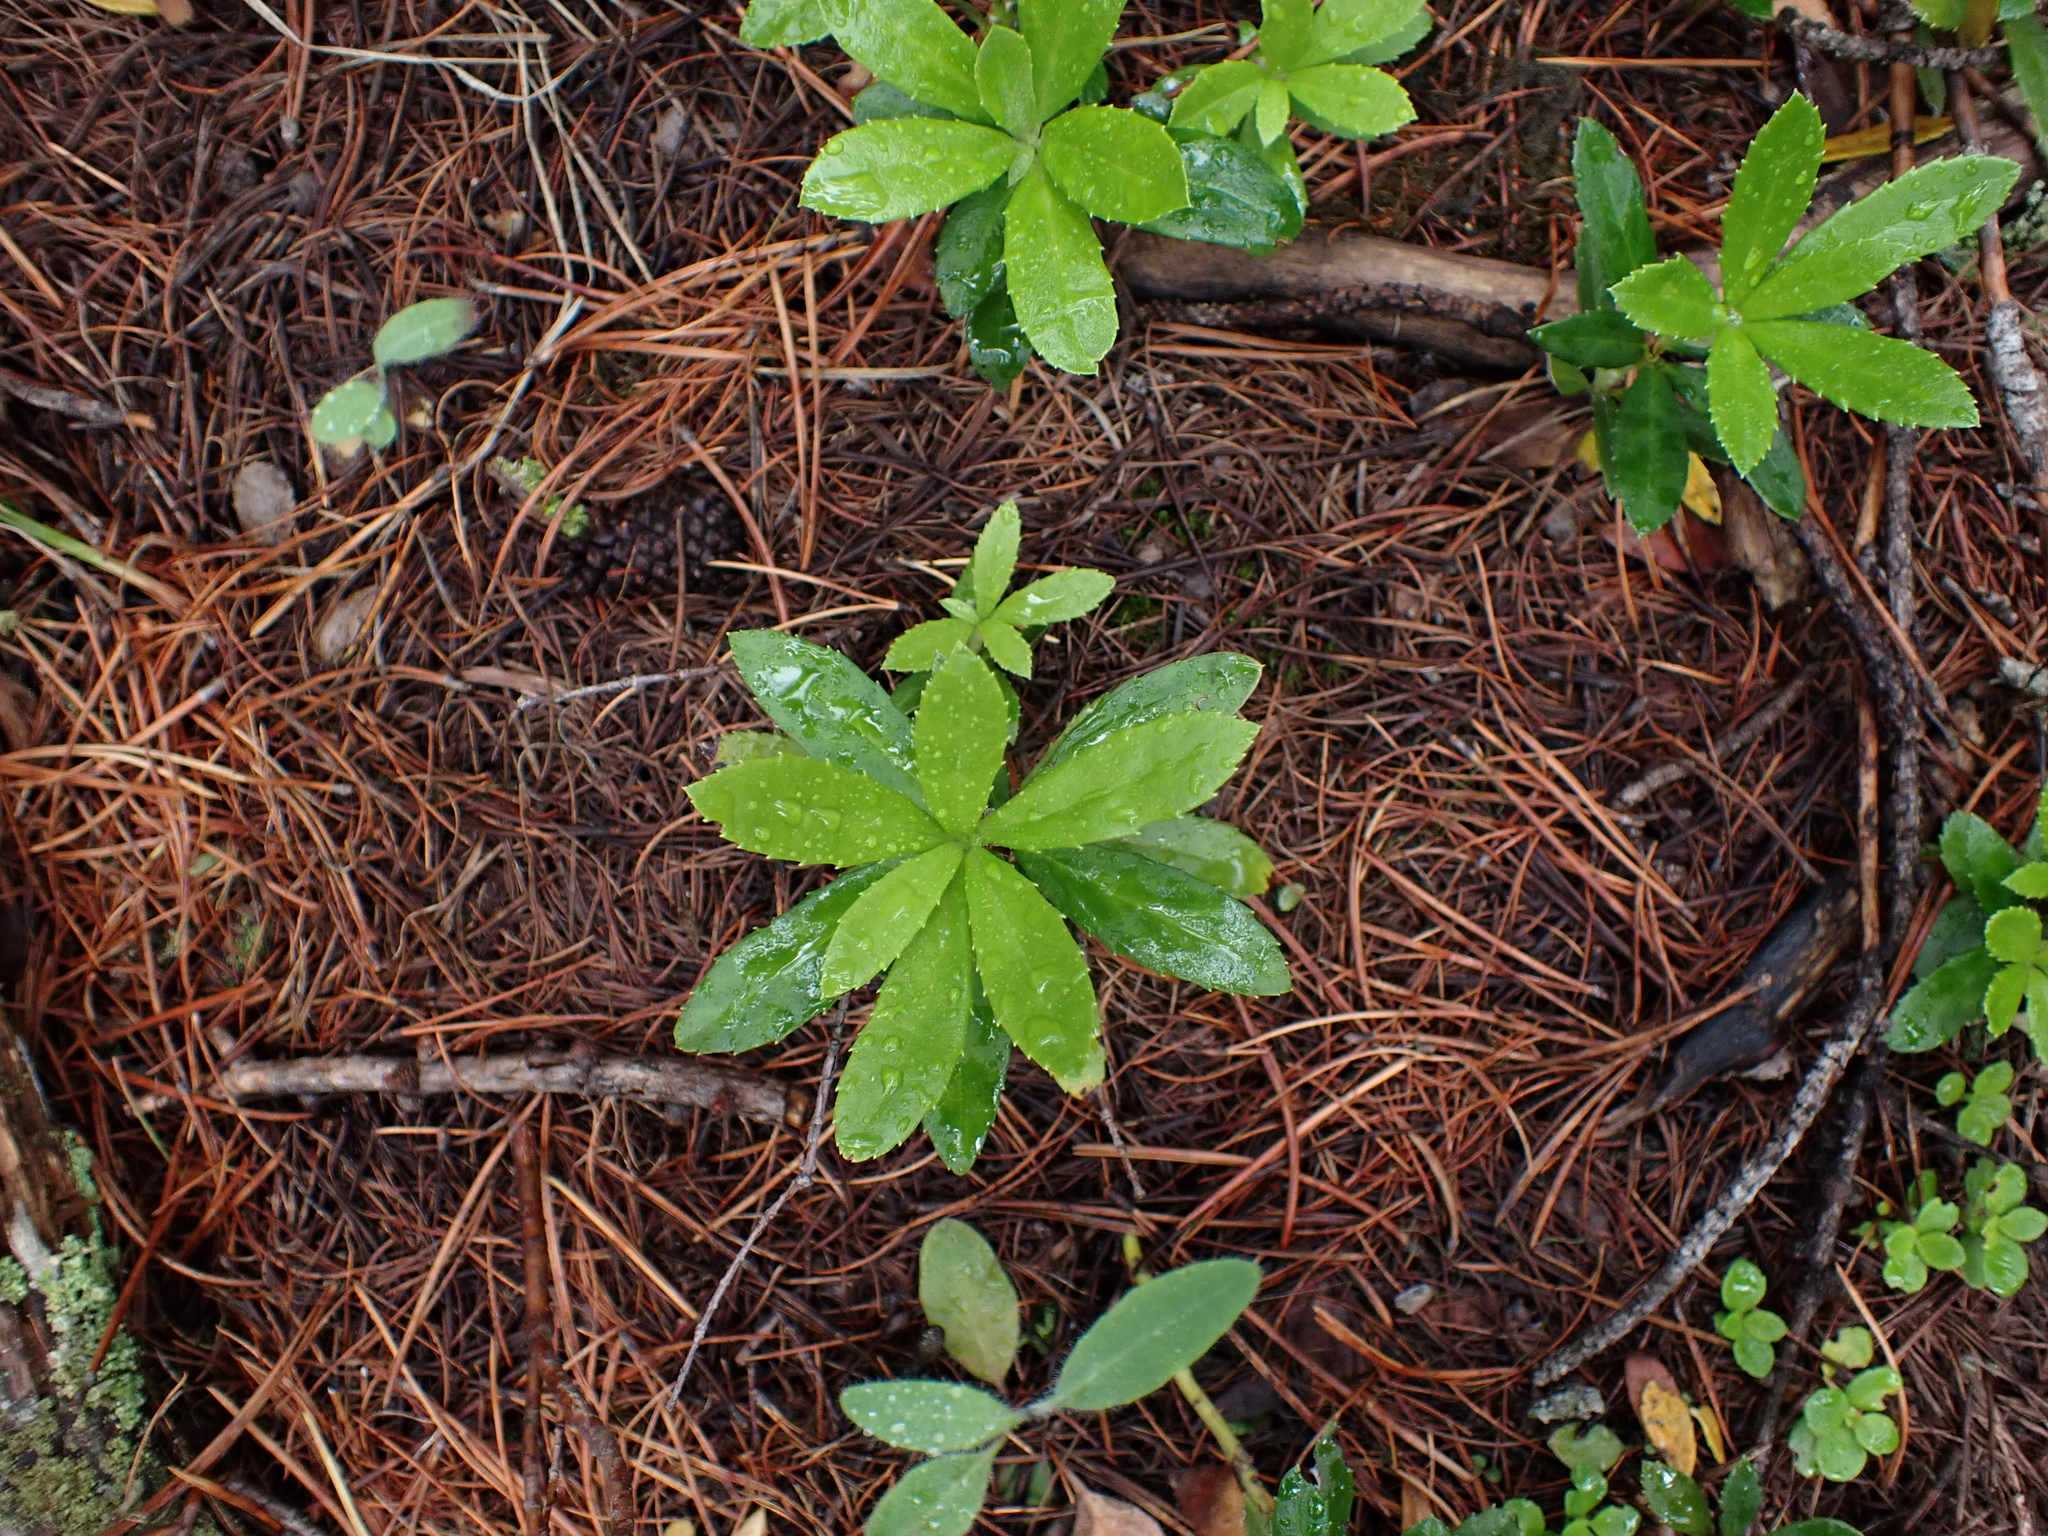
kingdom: Plantae
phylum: Tracheophyta
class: Magnoliopsida
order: Ericales
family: Ericaceae
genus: Chimaphila
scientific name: Chimaphila umbellata
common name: Pipsissewa
